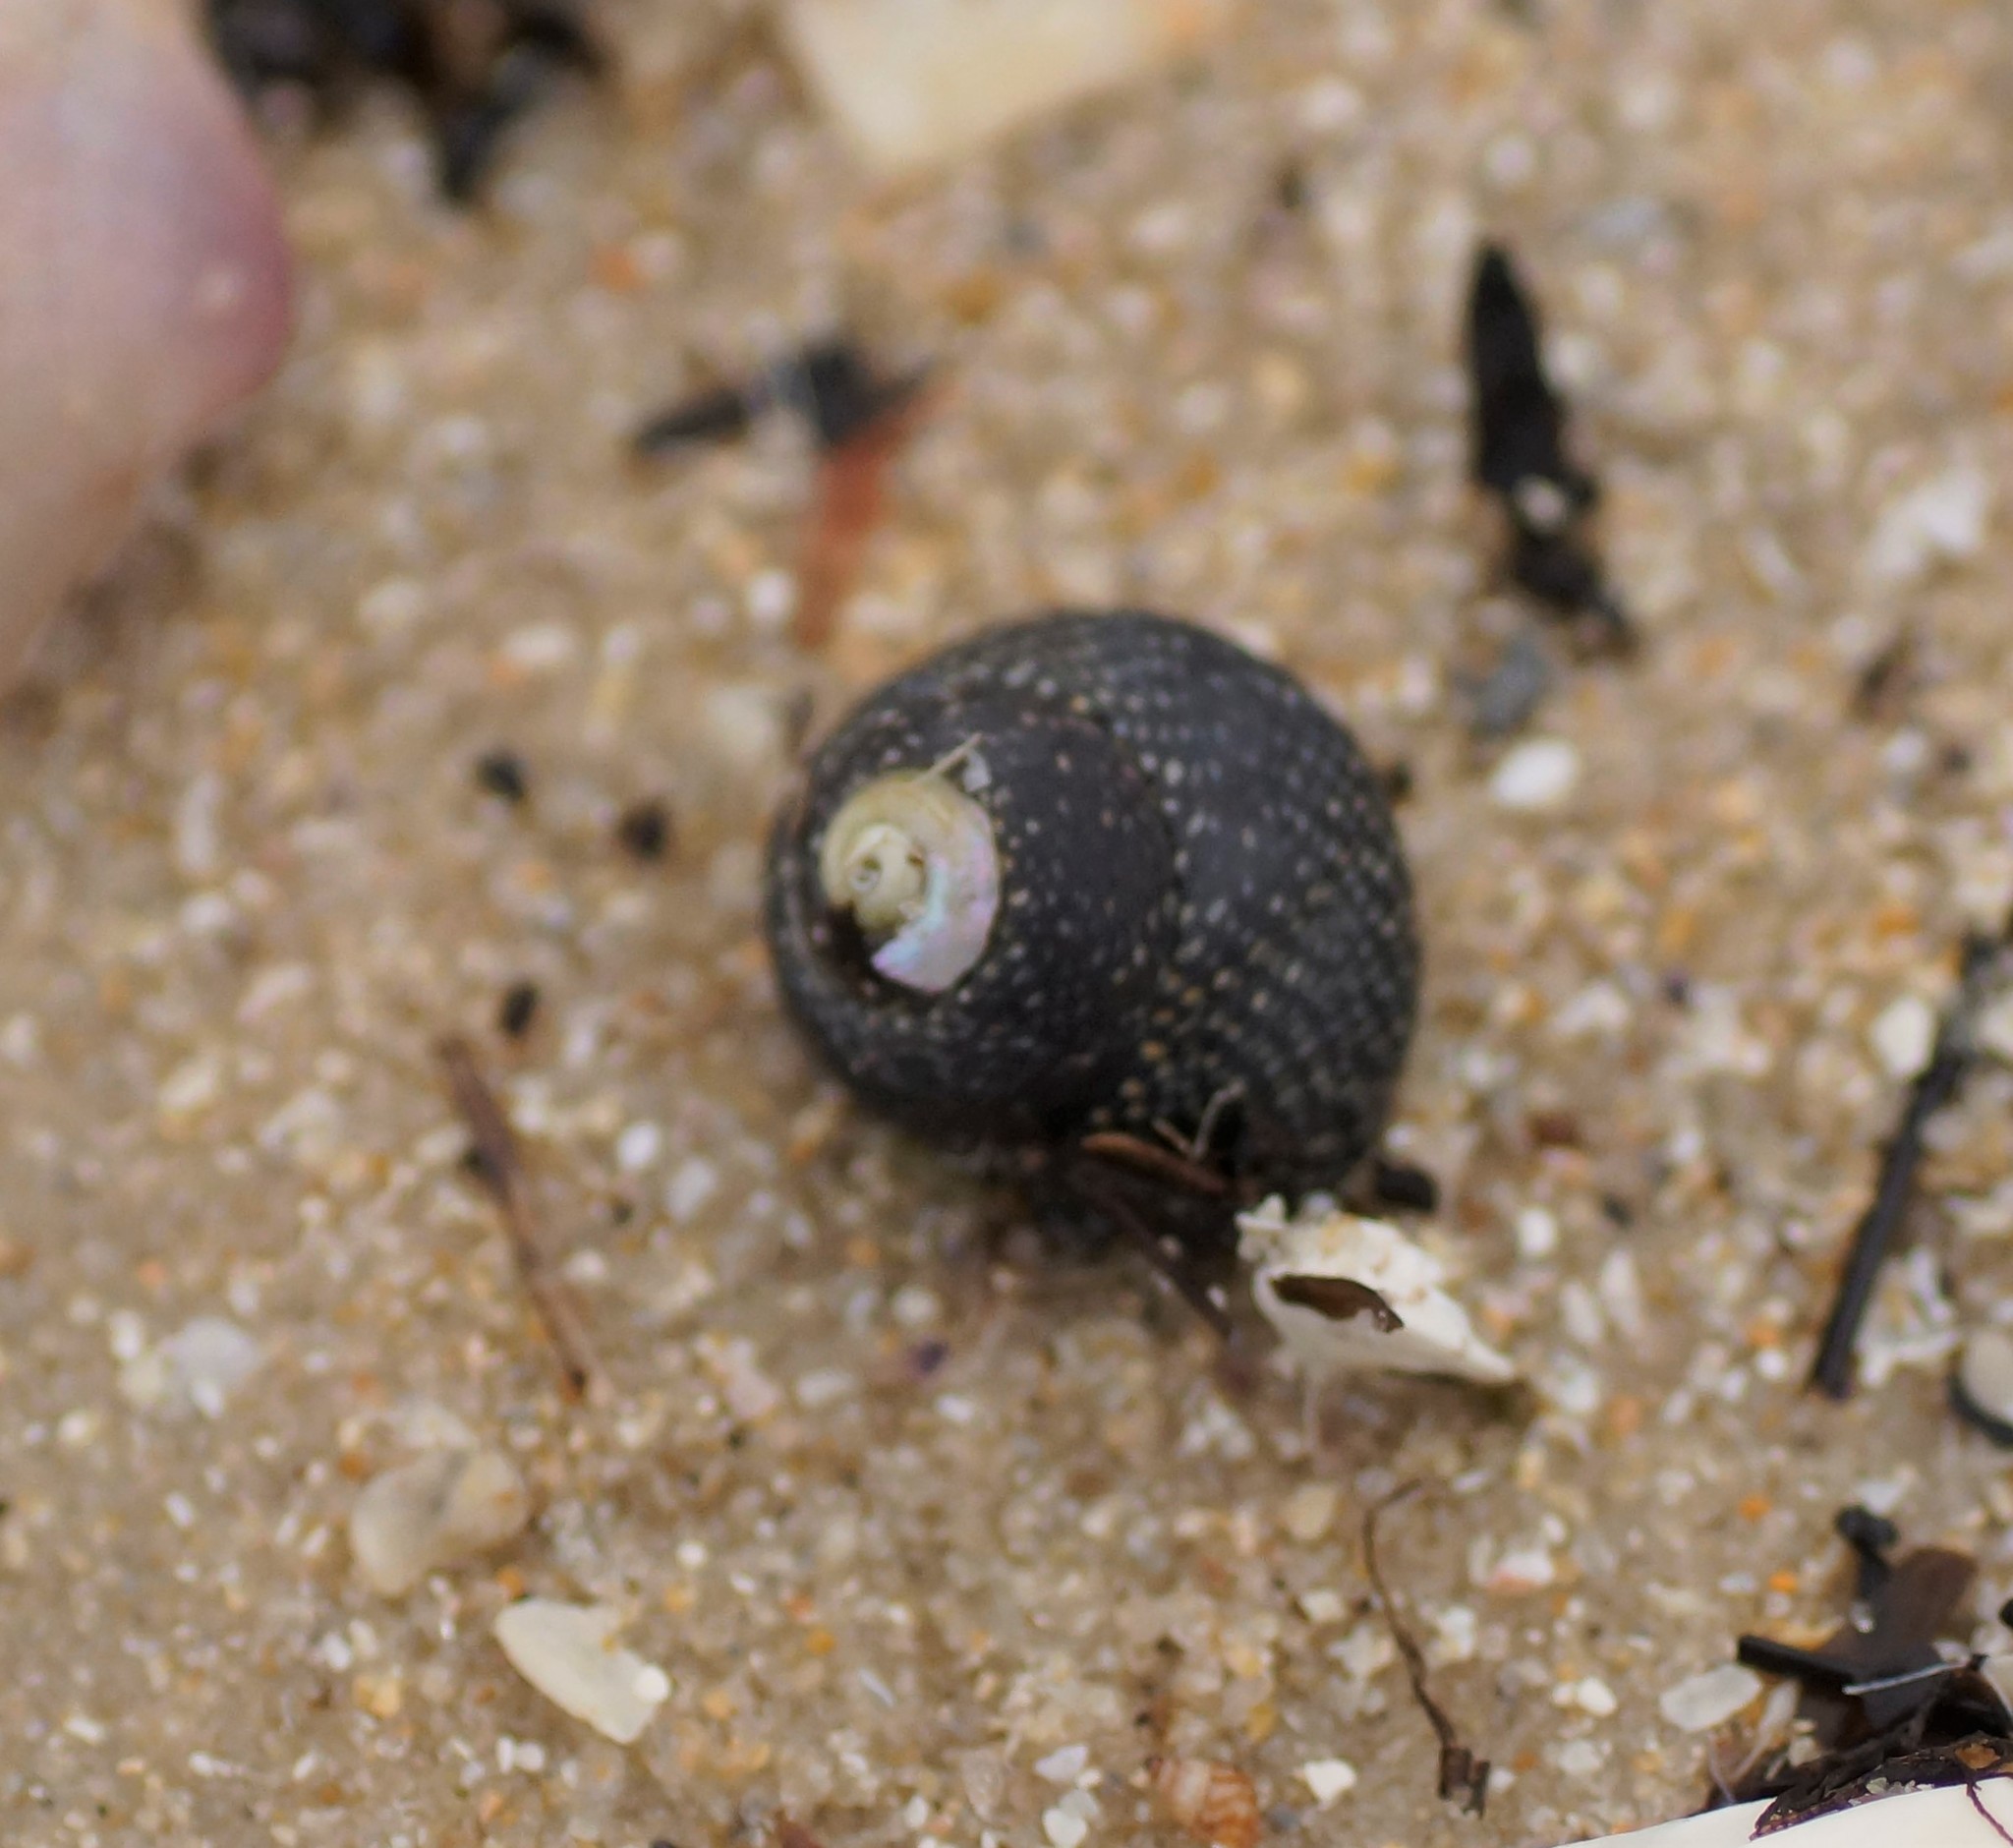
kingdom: Animalia
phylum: Mollusca
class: Gastropoda
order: Trochida
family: Trochidae
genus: Chlorodiloma
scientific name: Chlorodiloma odontis
